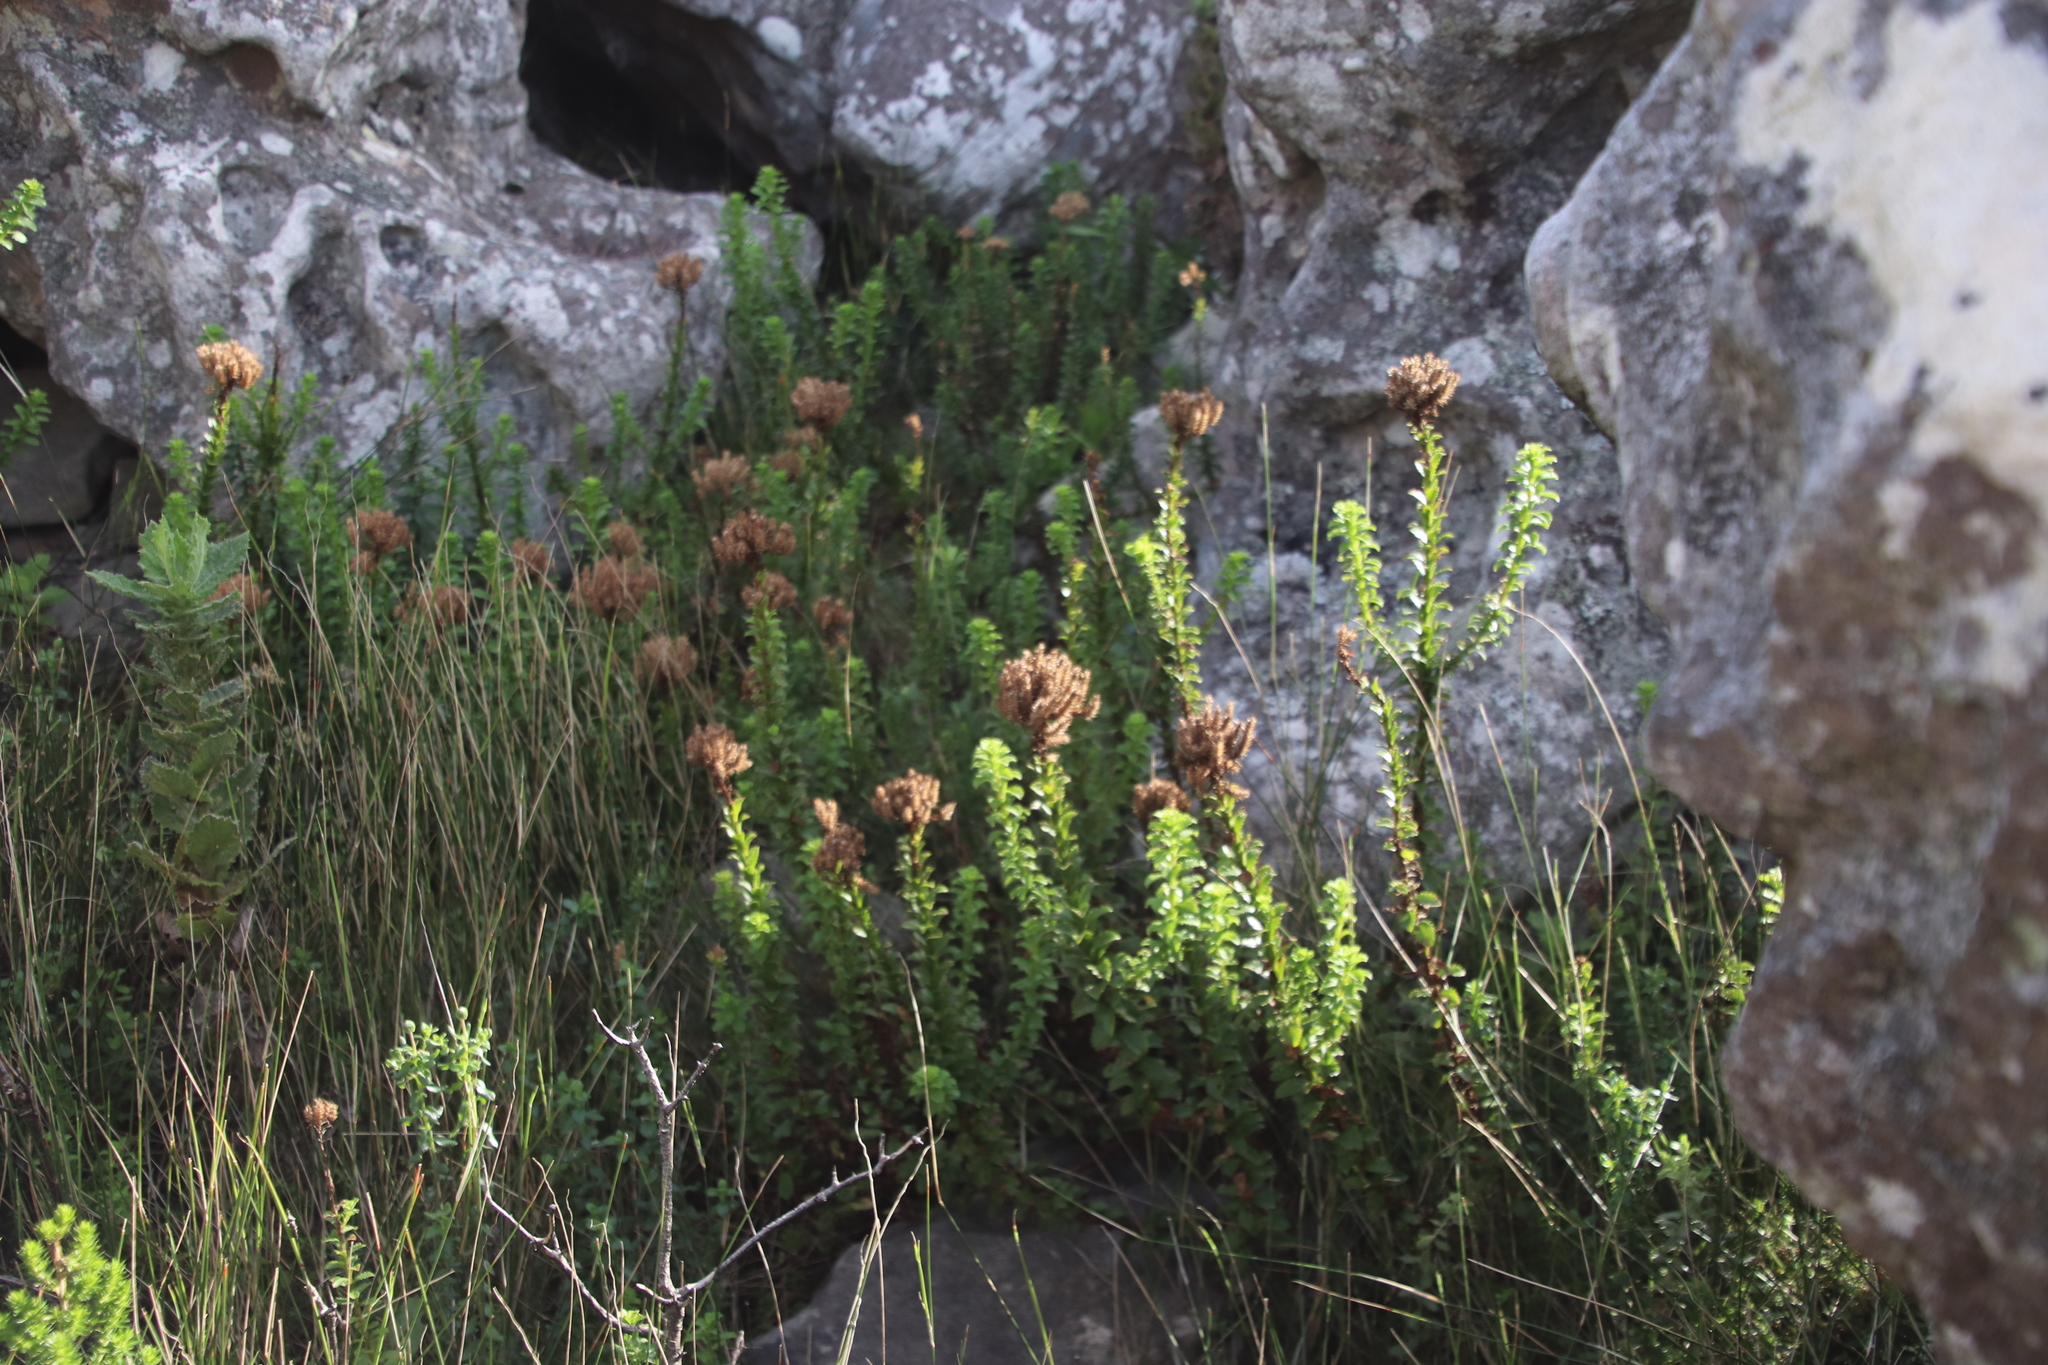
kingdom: Plantae
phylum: Tracheophyta
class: Magnoliopsida
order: Lamiales
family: Scrophulariaceae
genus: Pseudoselago
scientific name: Pseudoselago serrata
